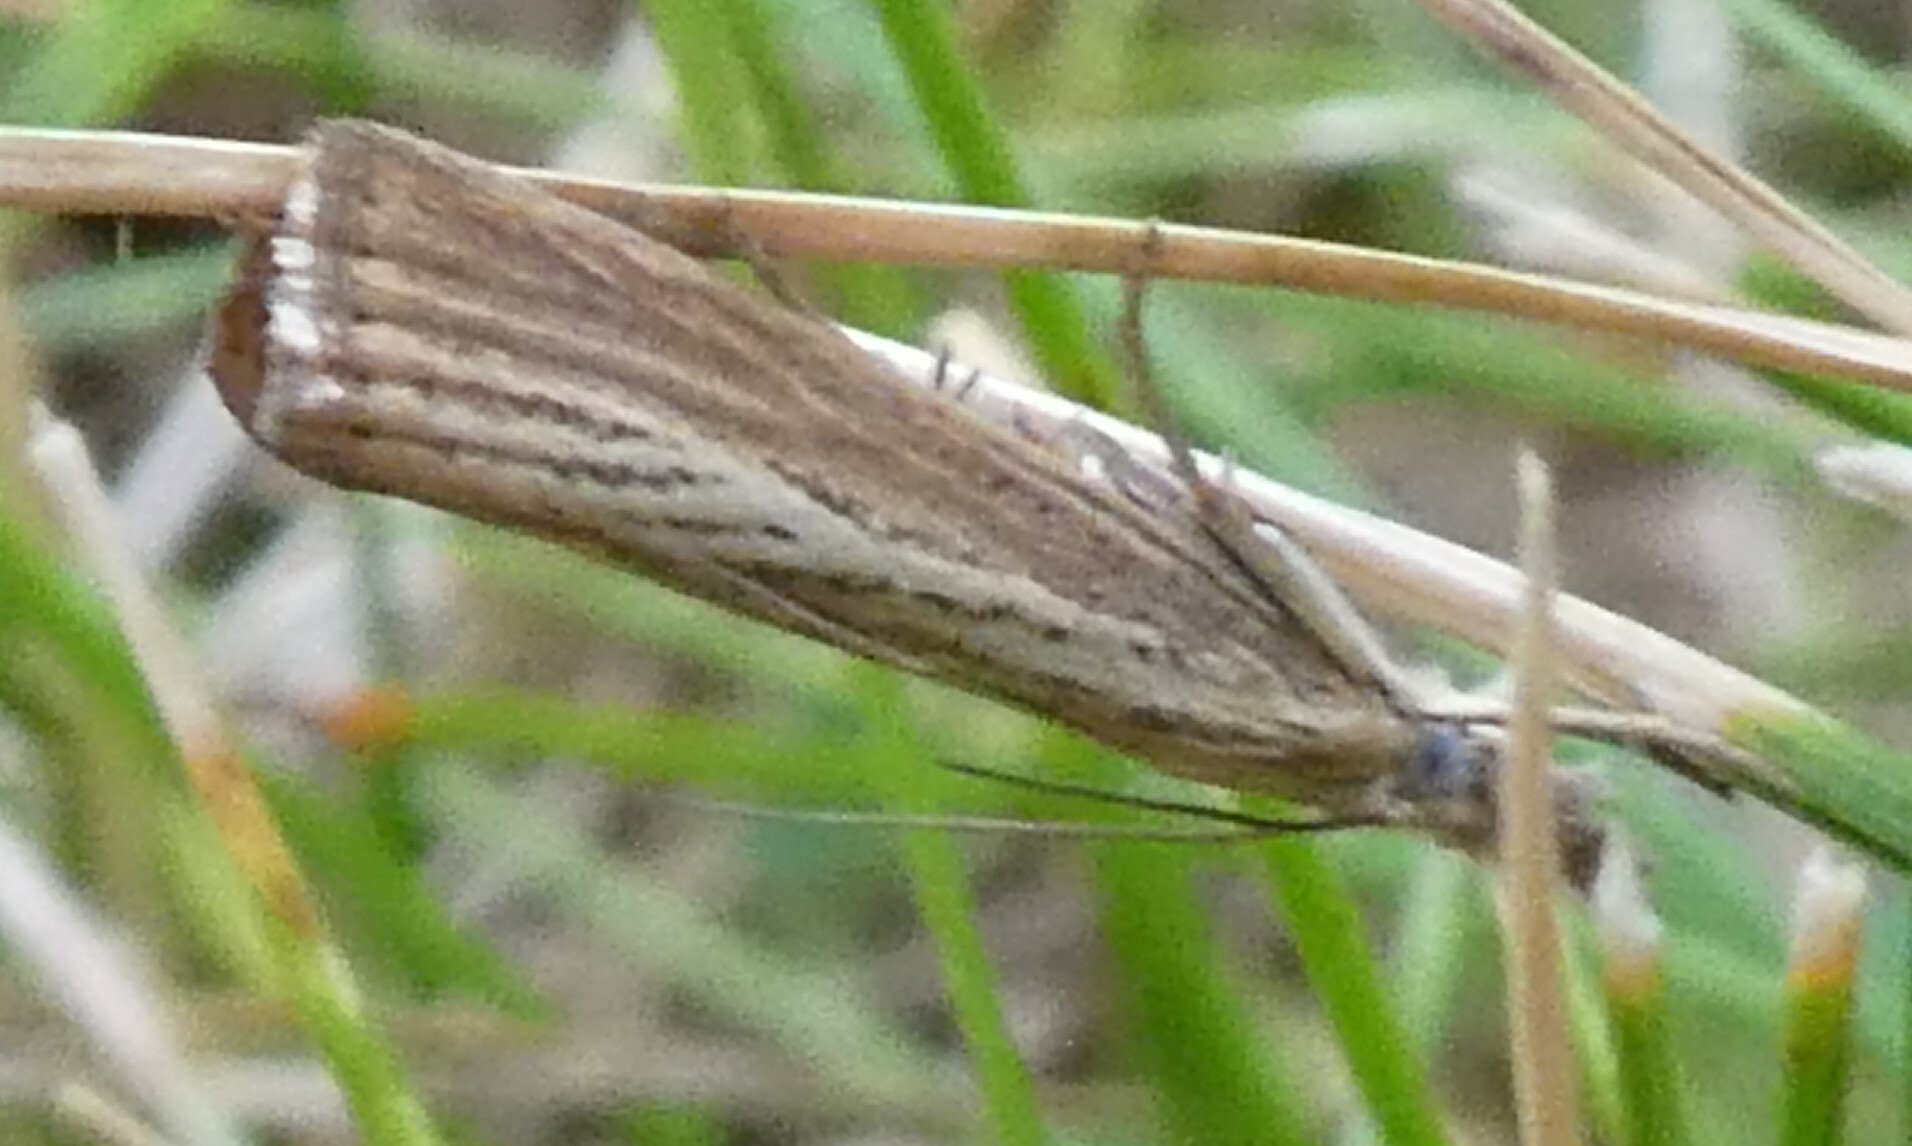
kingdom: Animalia
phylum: Arthropoda
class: Insecta
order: Lepidoptera
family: Crambidae
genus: Agriphila
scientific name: Agriphila straminella
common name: Straw grass-veneer
